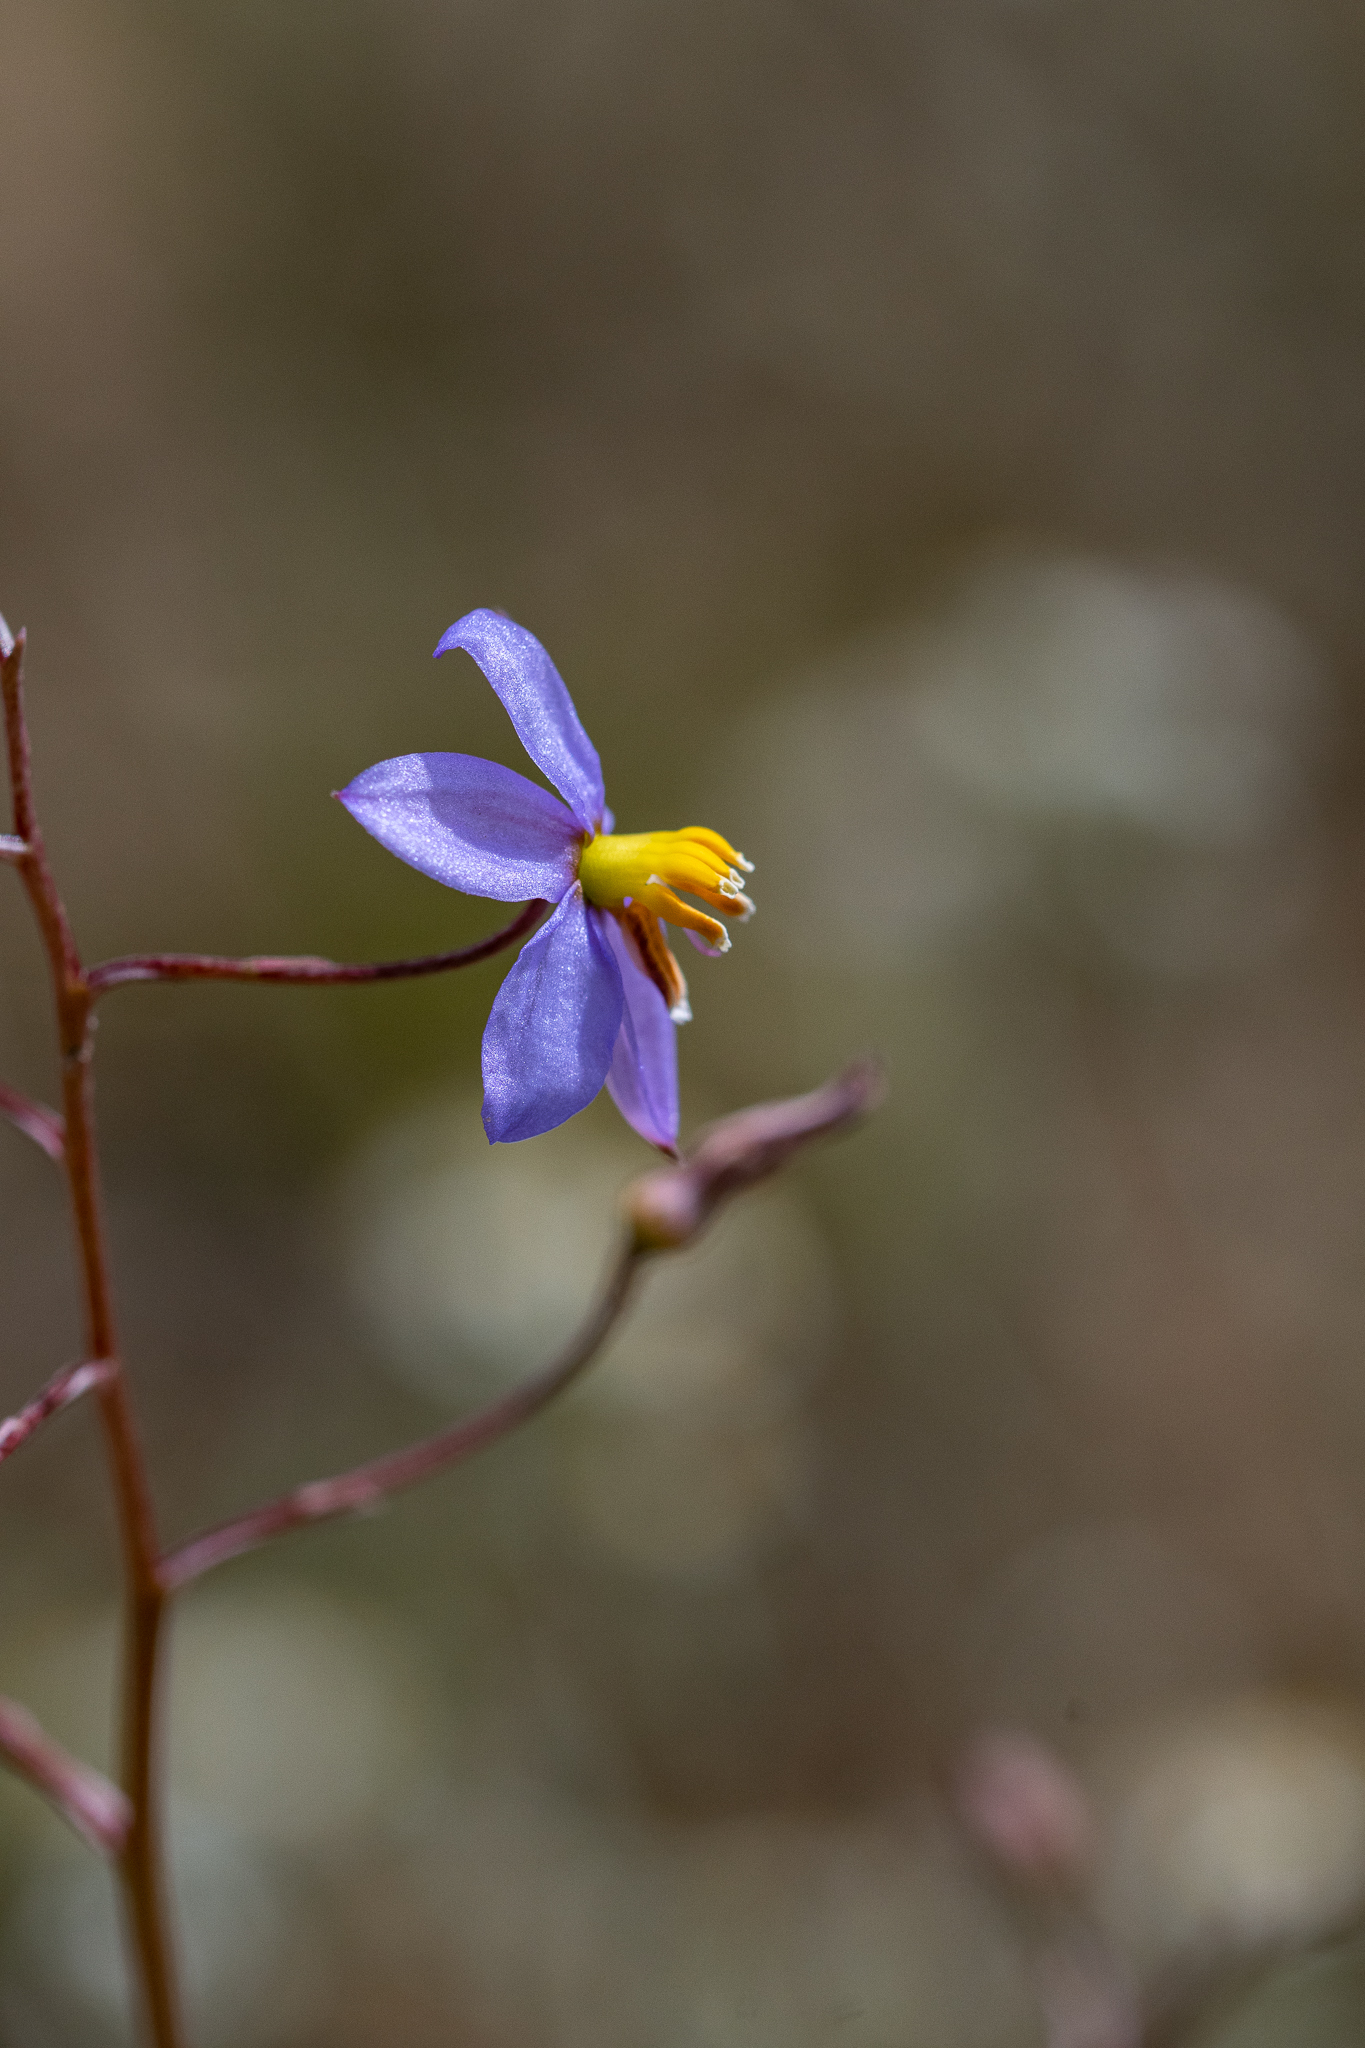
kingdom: Plantae
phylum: Tracheophyta
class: Liliopsida
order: Asparagales
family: Tecophilaeaceae
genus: Cyanella
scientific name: Cyanella hyacinthoides
